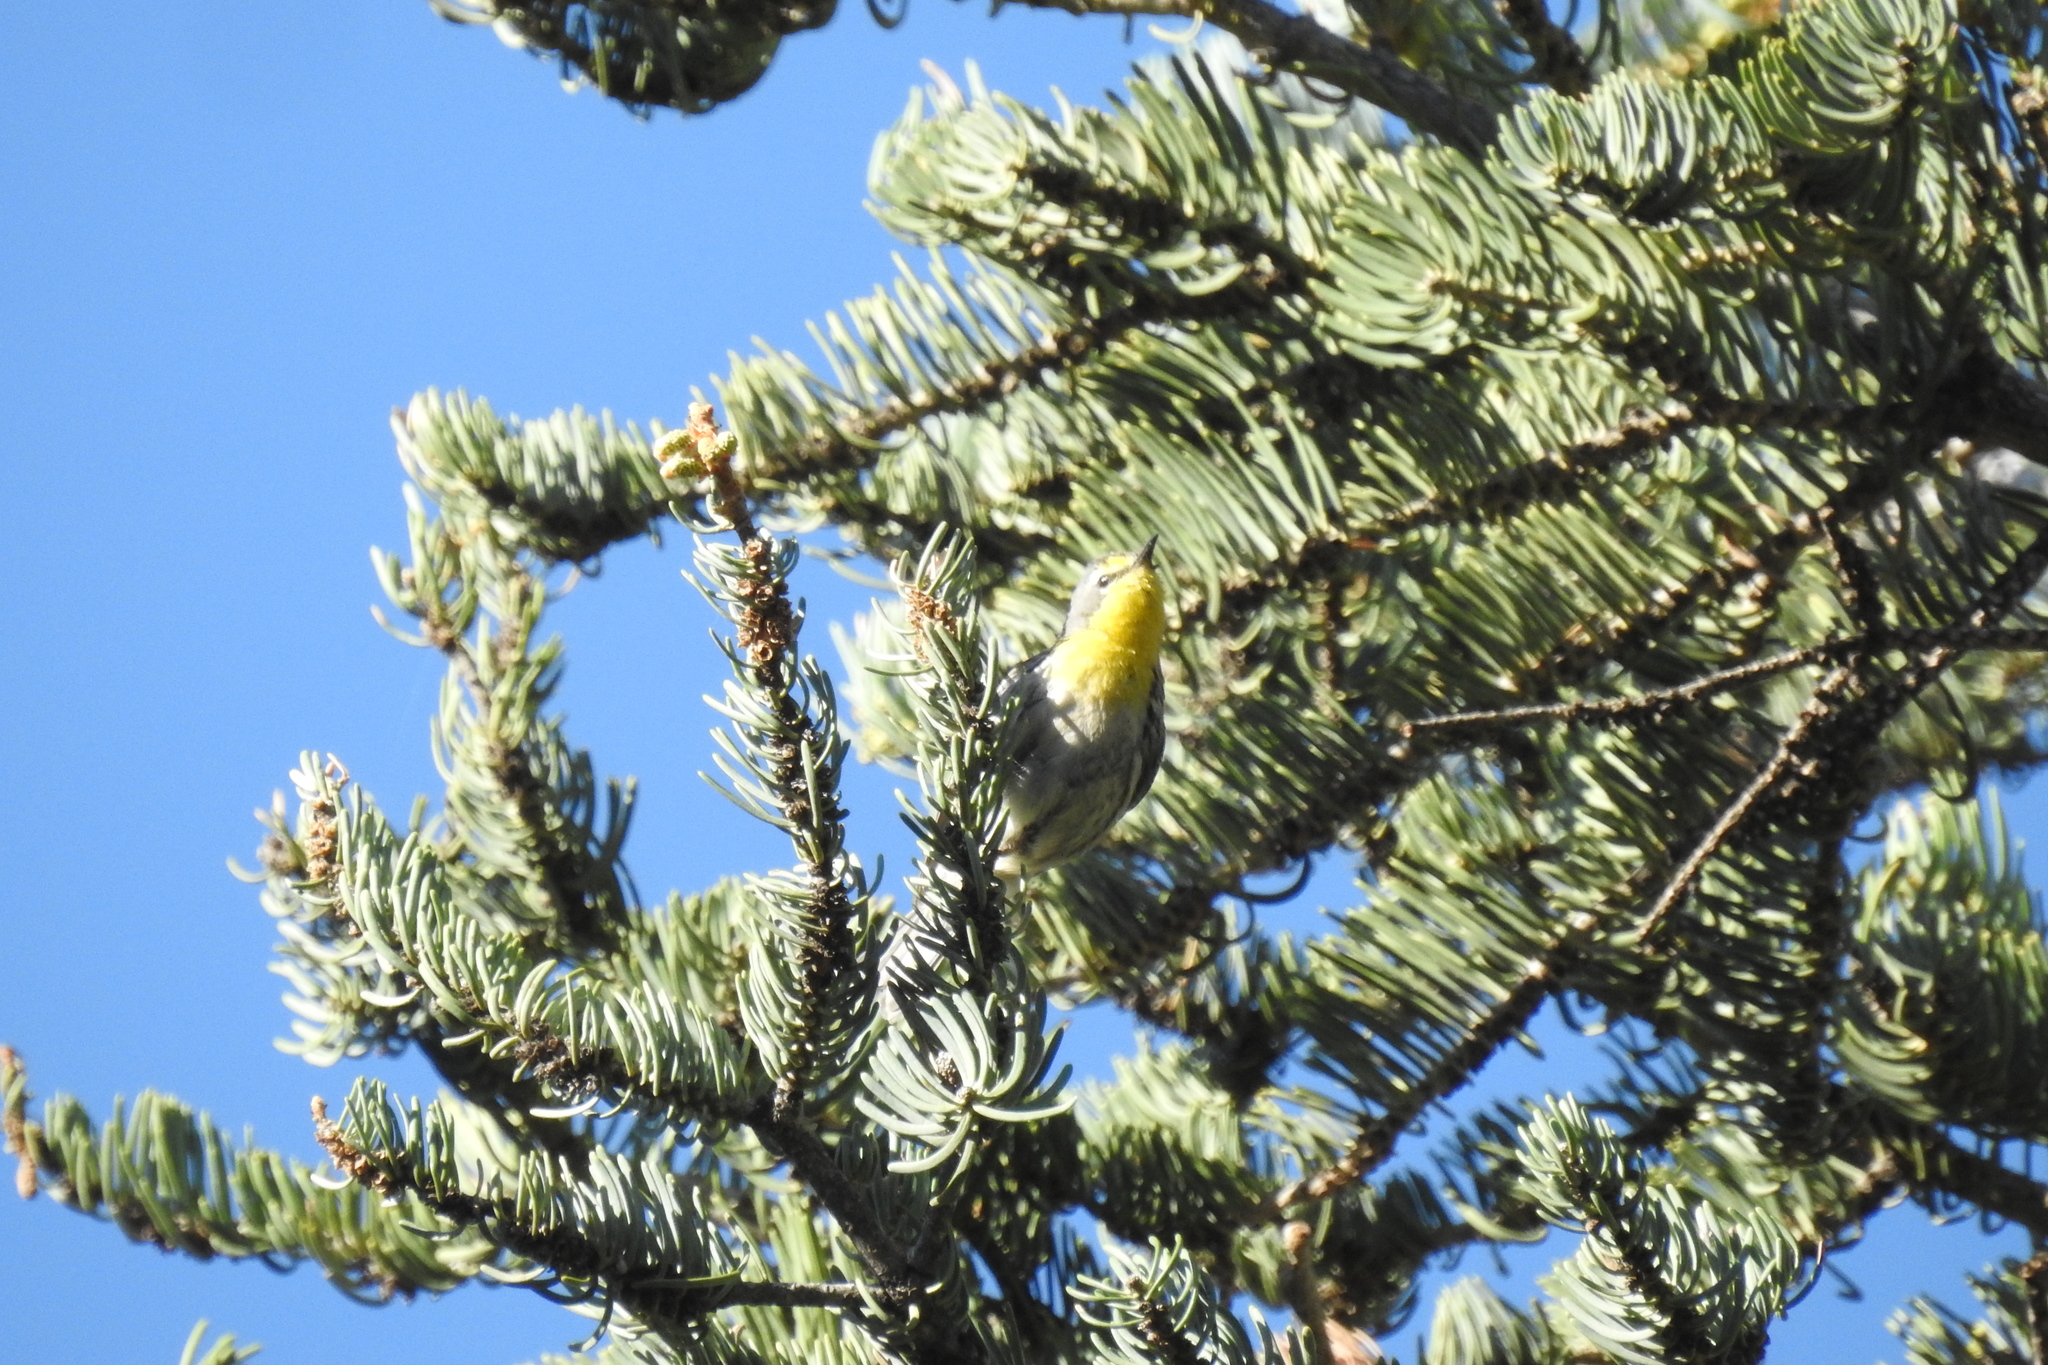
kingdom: Animalia
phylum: Chordata
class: Aves
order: Passeriformes
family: Parulidae
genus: Setophaga
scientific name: Setophaga graciae
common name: Grace's warbler
